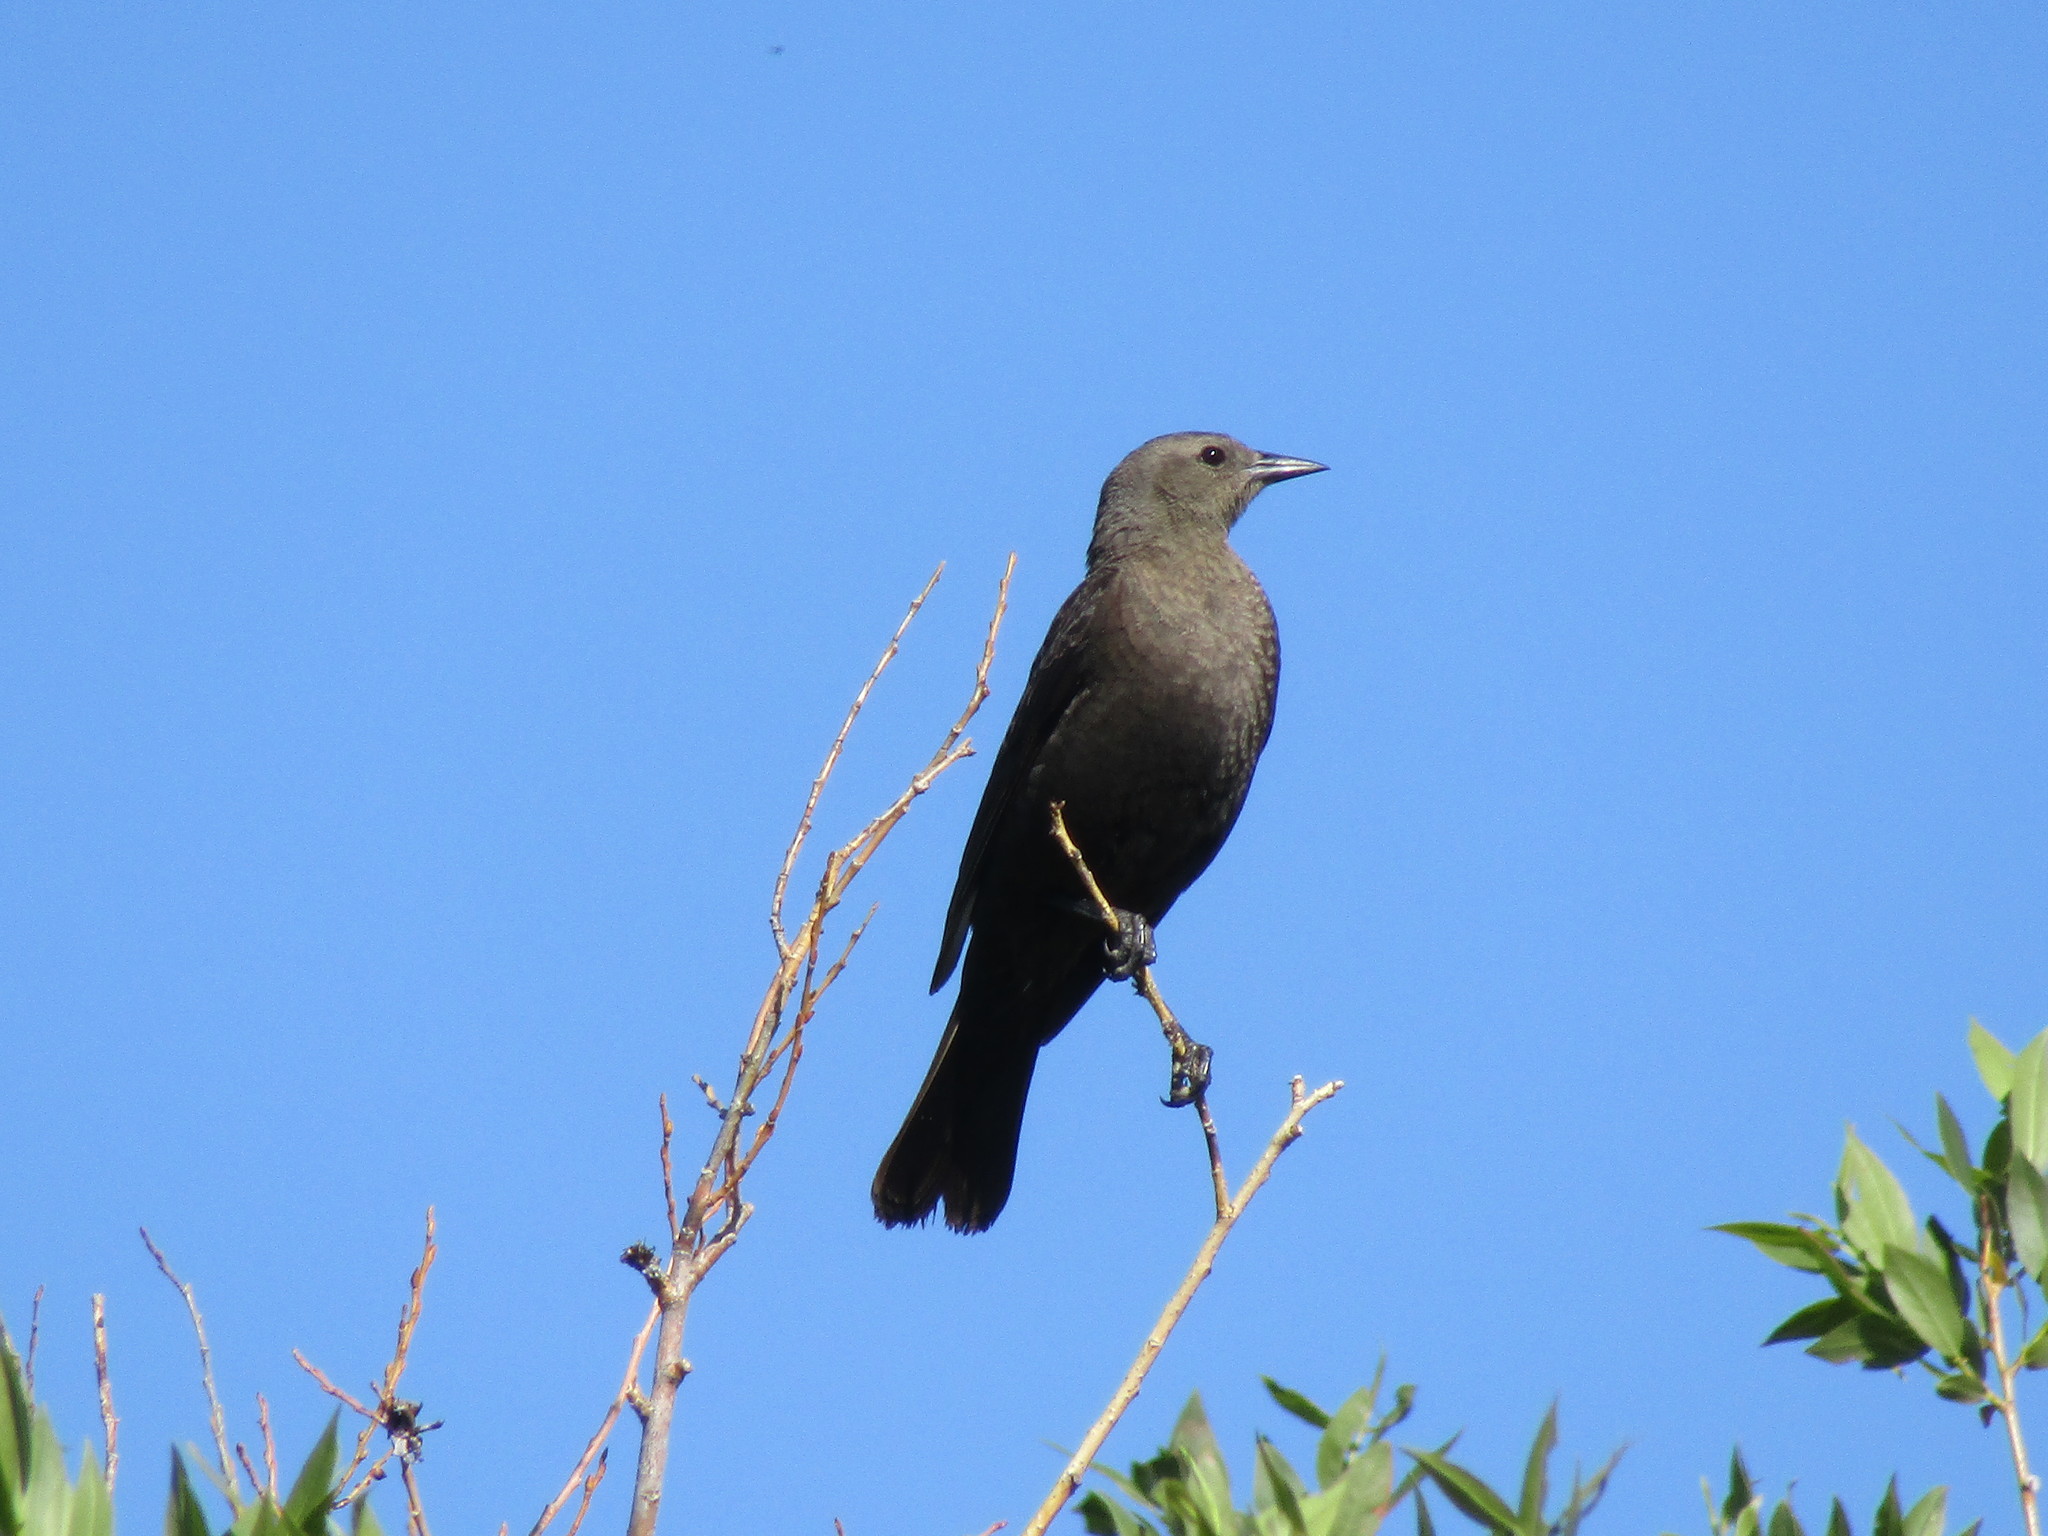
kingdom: Animalia
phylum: Chordata
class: Aves
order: Passeriformes
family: Icteridae
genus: Euphagus
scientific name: Euphagus cyanocephalus
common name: Brewer's blackbird
